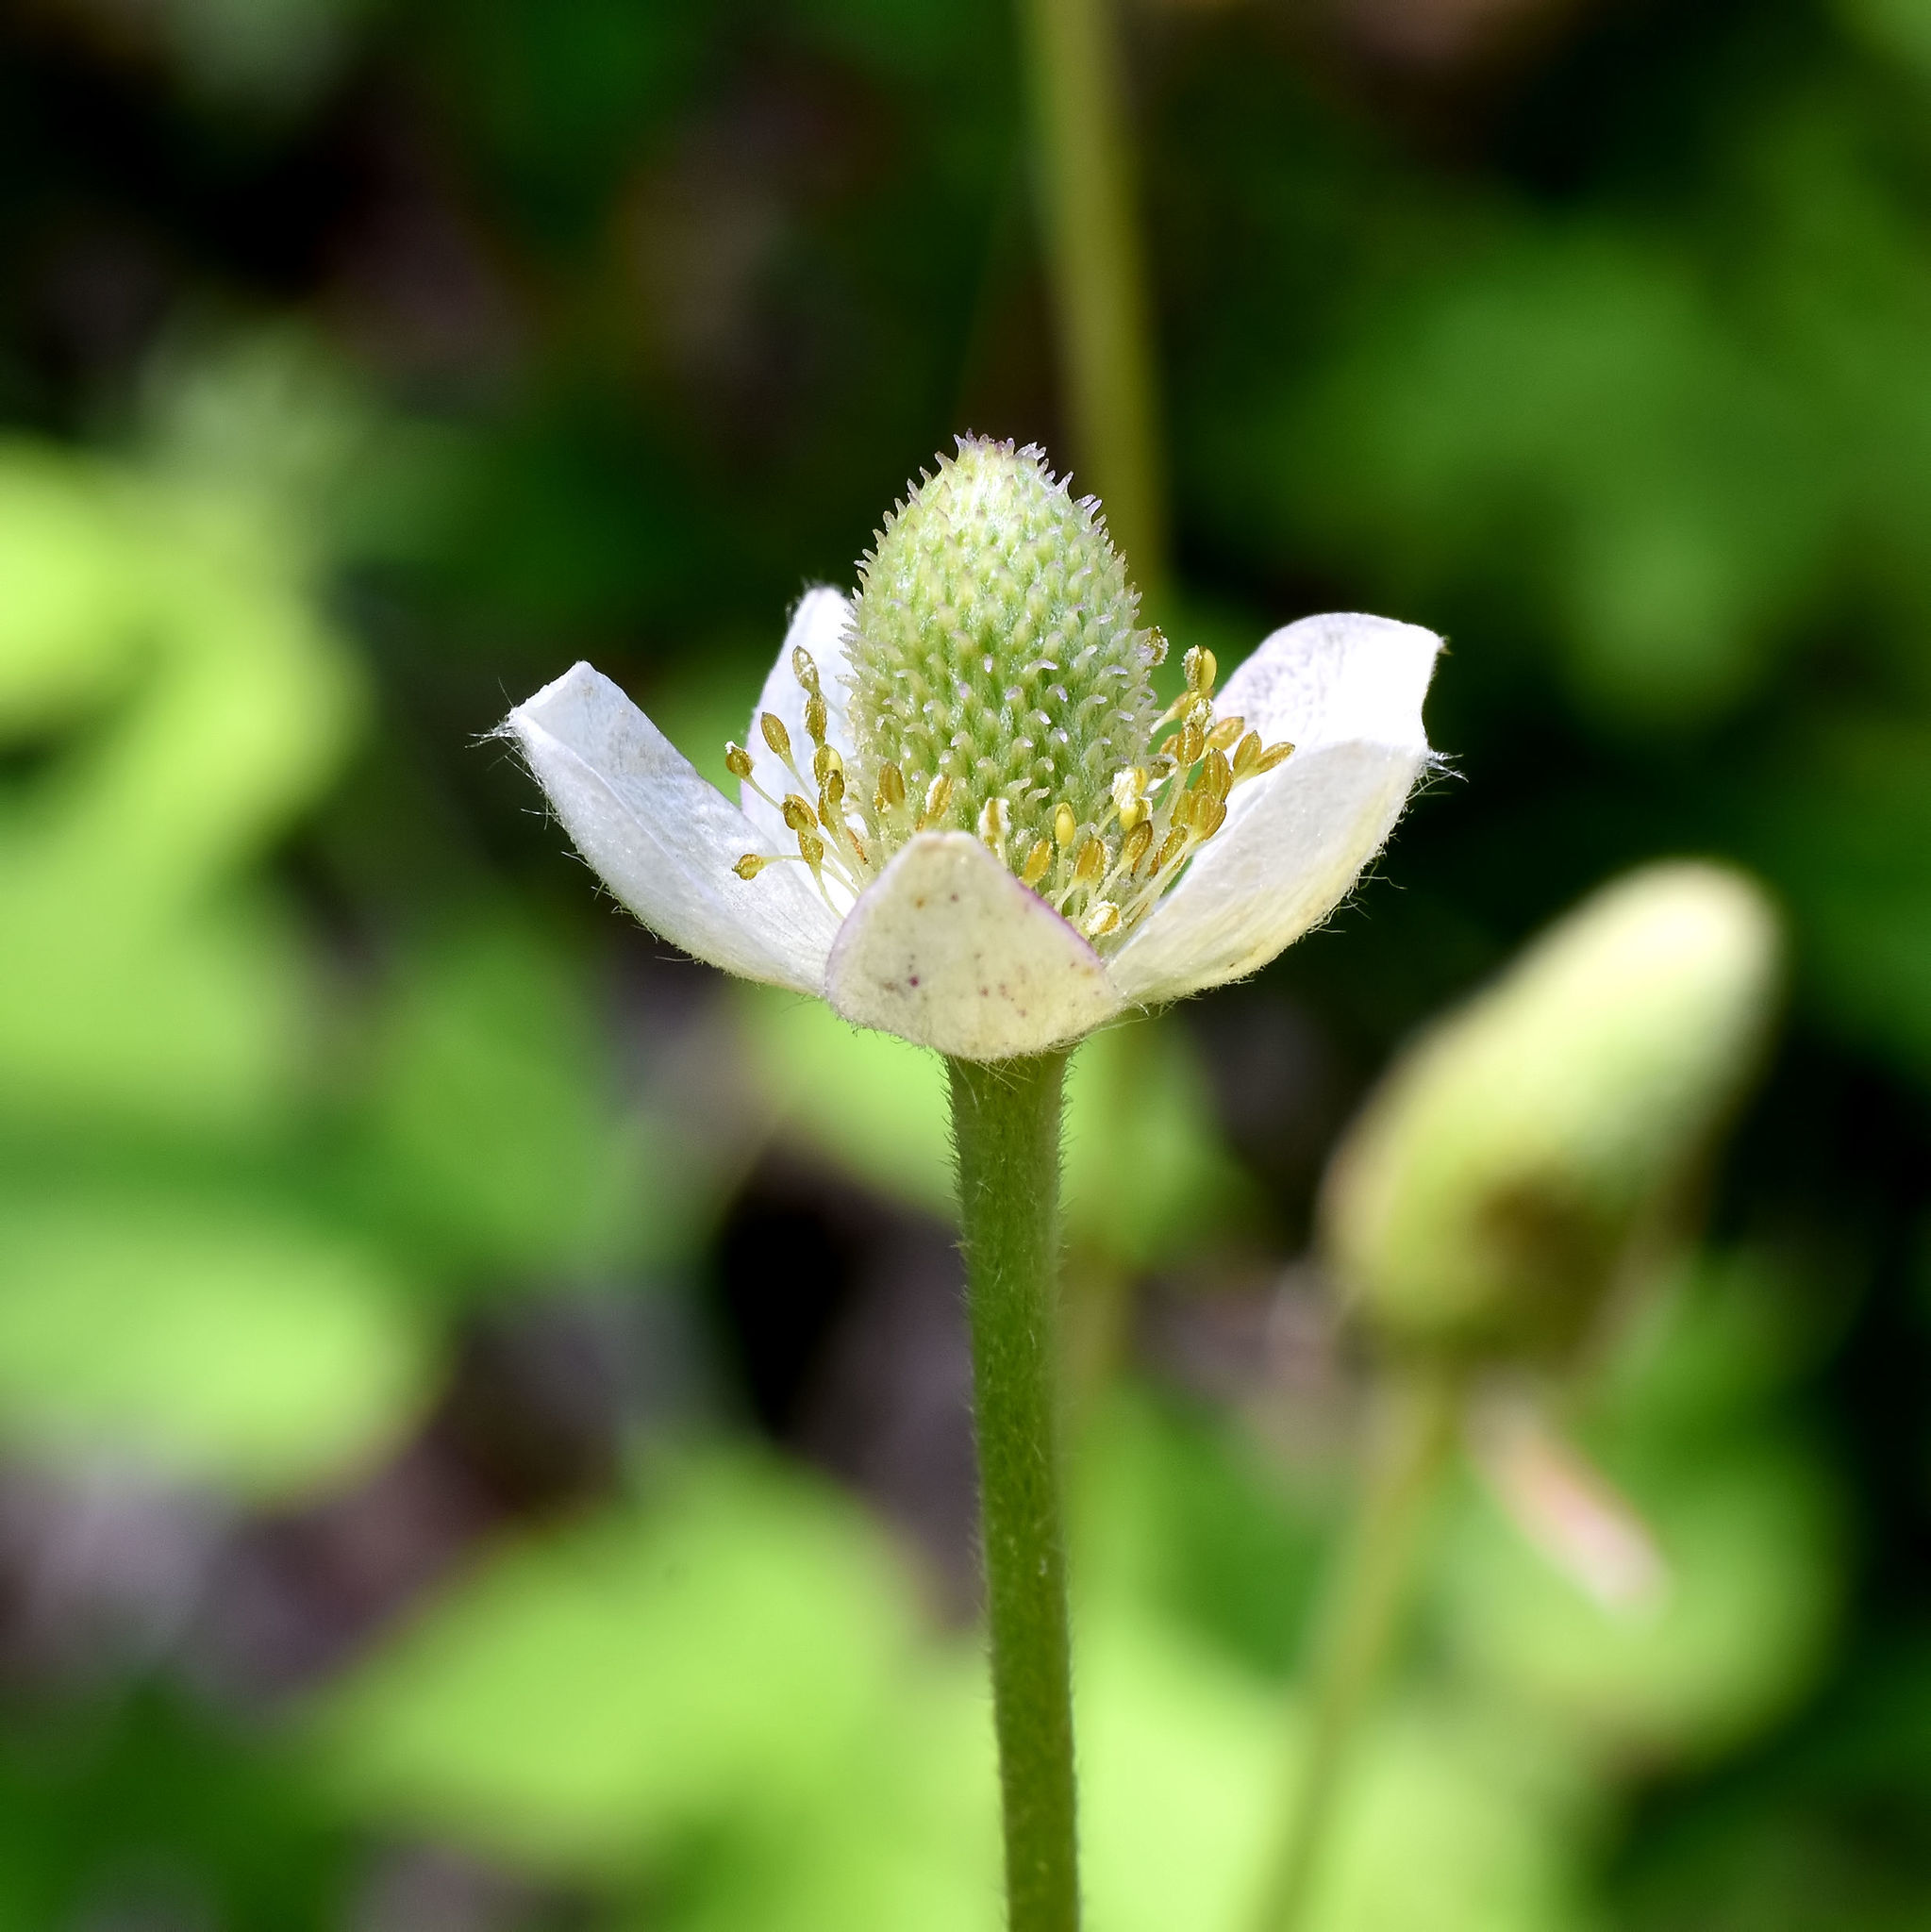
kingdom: Plantae
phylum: Tracheophyta
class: Magnoliopsida
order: Ranunculales
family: Ranunculaceae
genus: Anemone
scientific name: Anemone cylindrica
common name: Candle anemone
